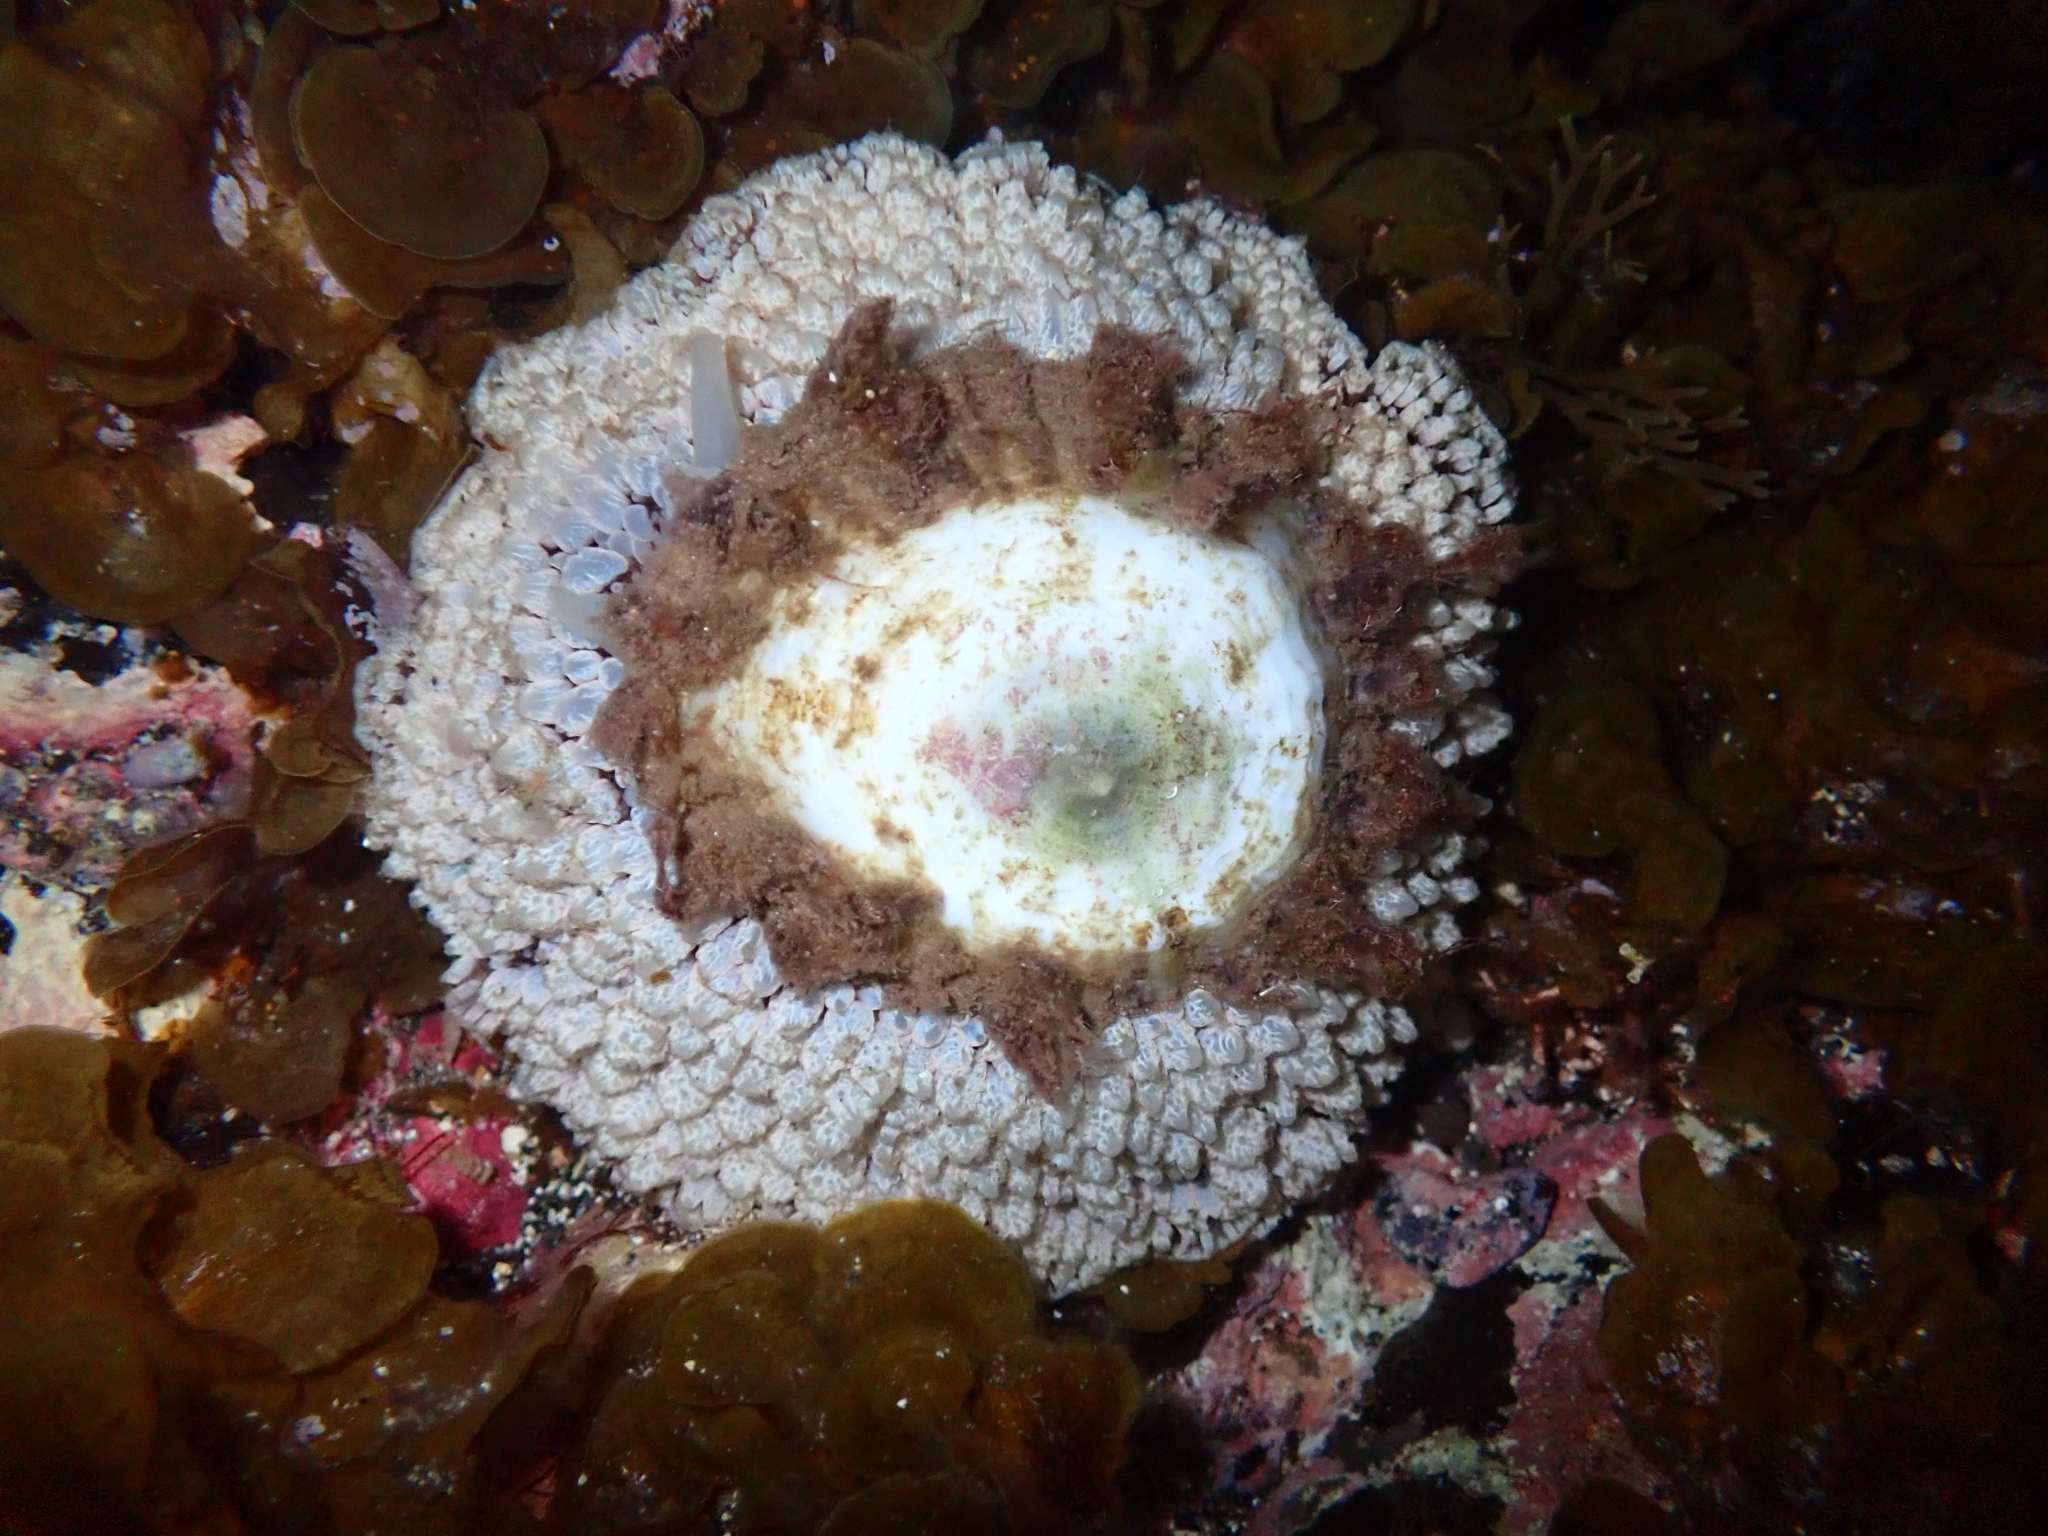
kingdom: Animalia
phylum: Mollusca
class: Gastropoda
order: Umbraculida
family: Umbraculidae
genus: Umbraculum
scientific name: Umbraculum umbraculum
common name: Atlantic umbrella slug
